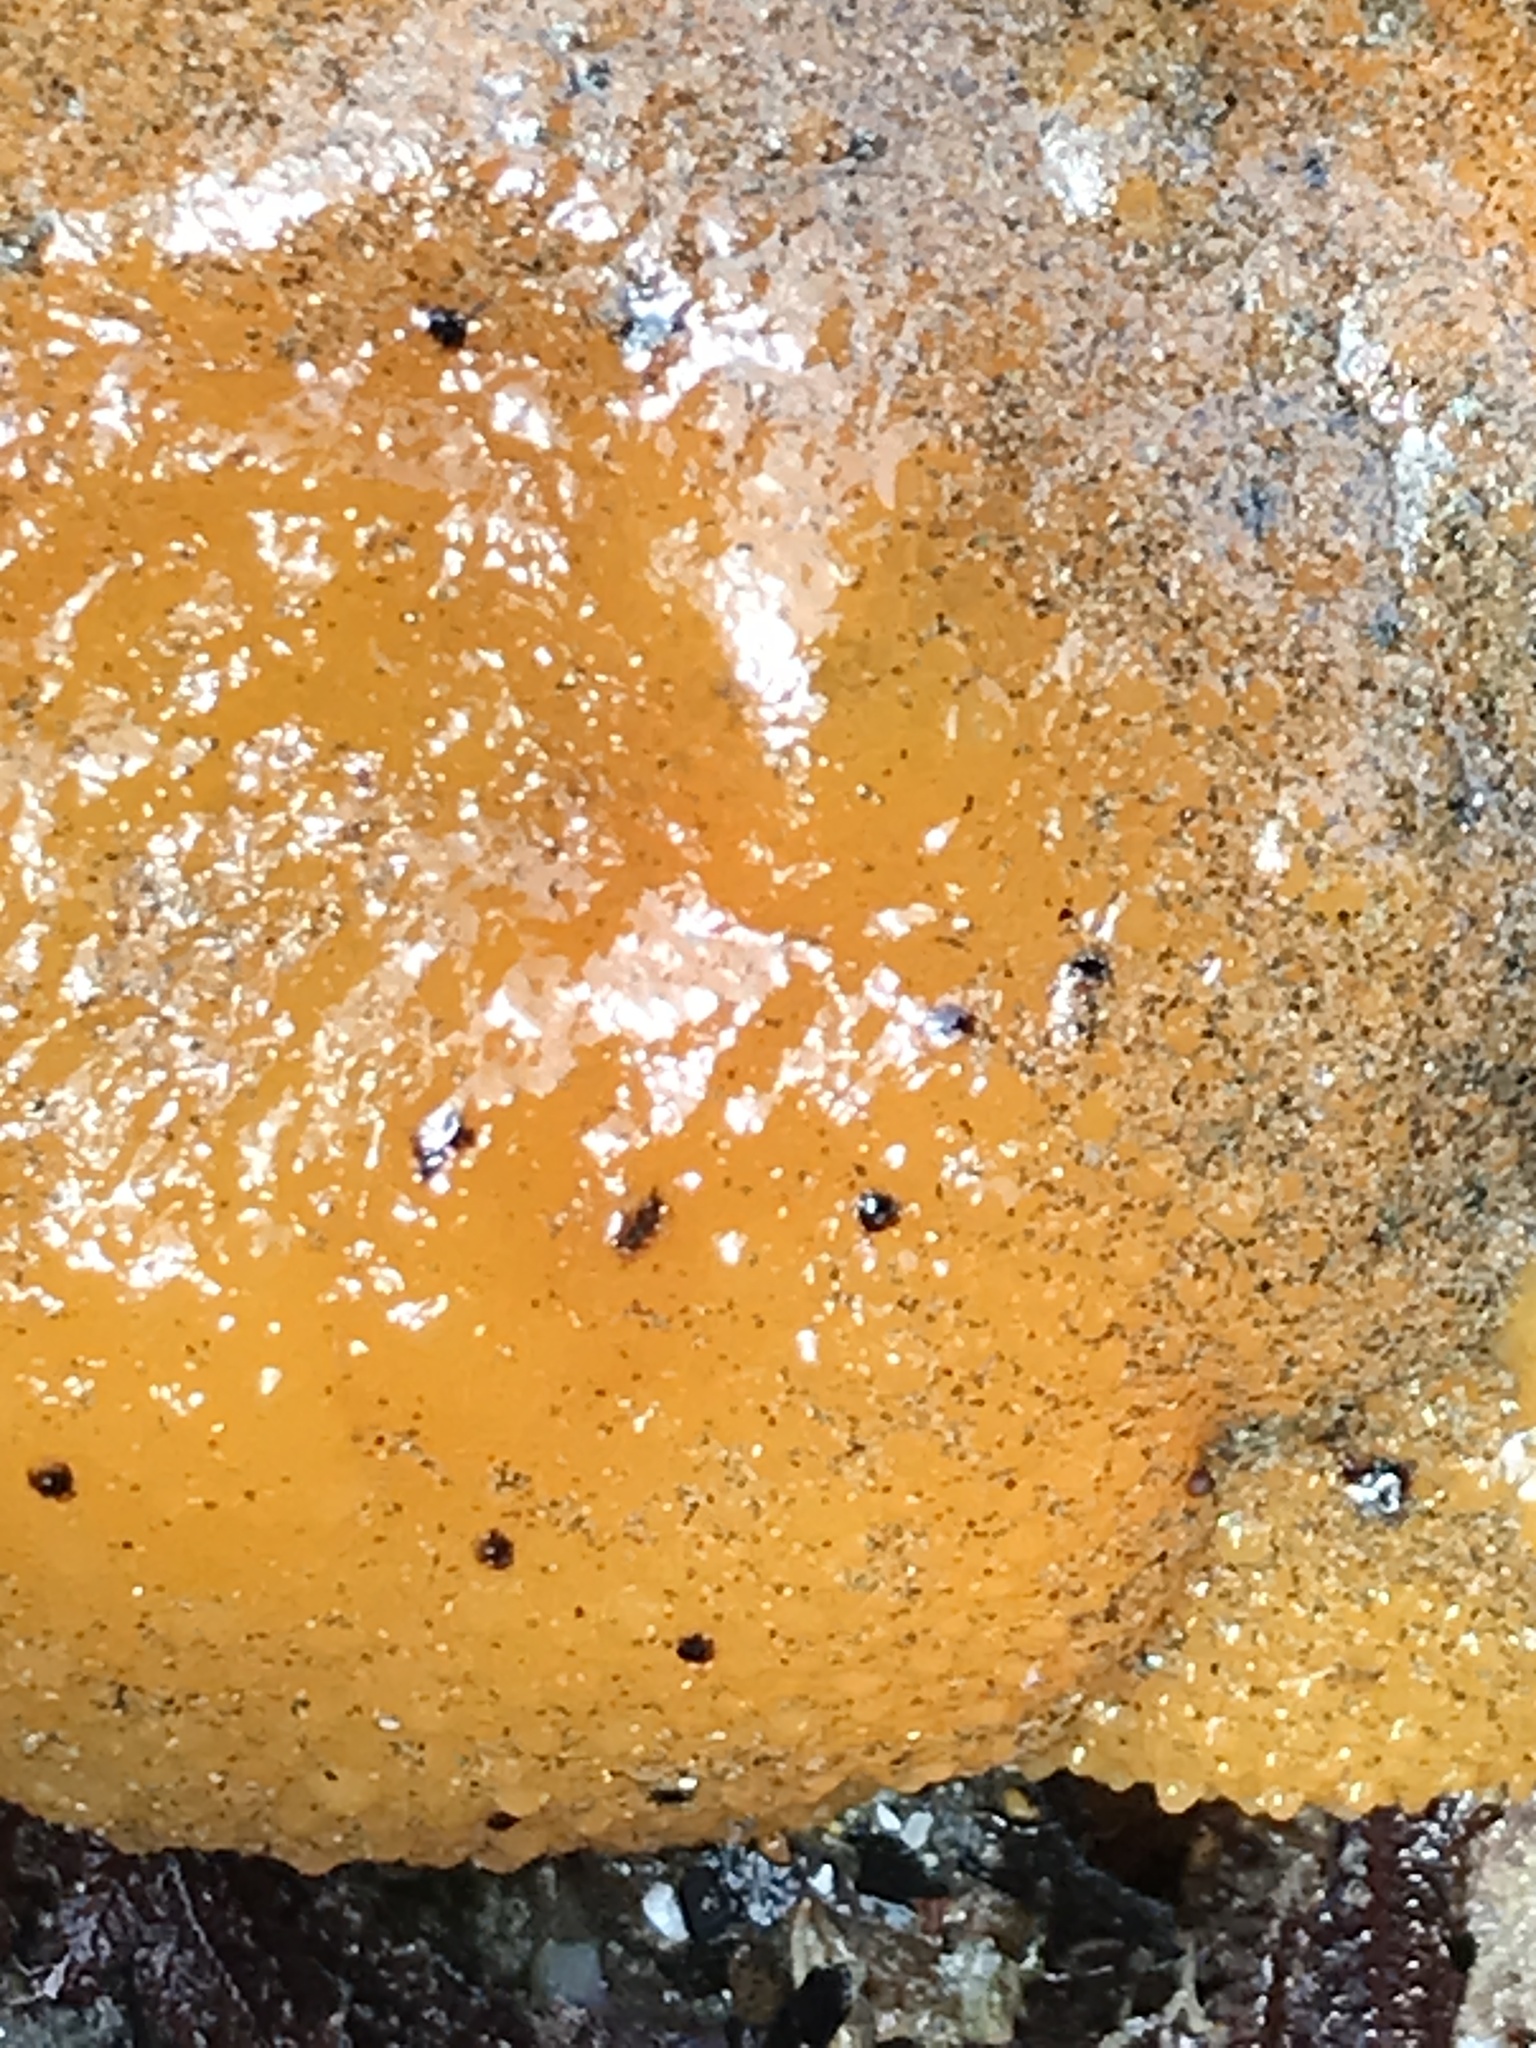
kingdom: Animalia
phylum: Mollusca
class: Gastropoda
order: Nudibranchia
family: Dorididae
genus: Doris
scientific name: Doris montereyensis
